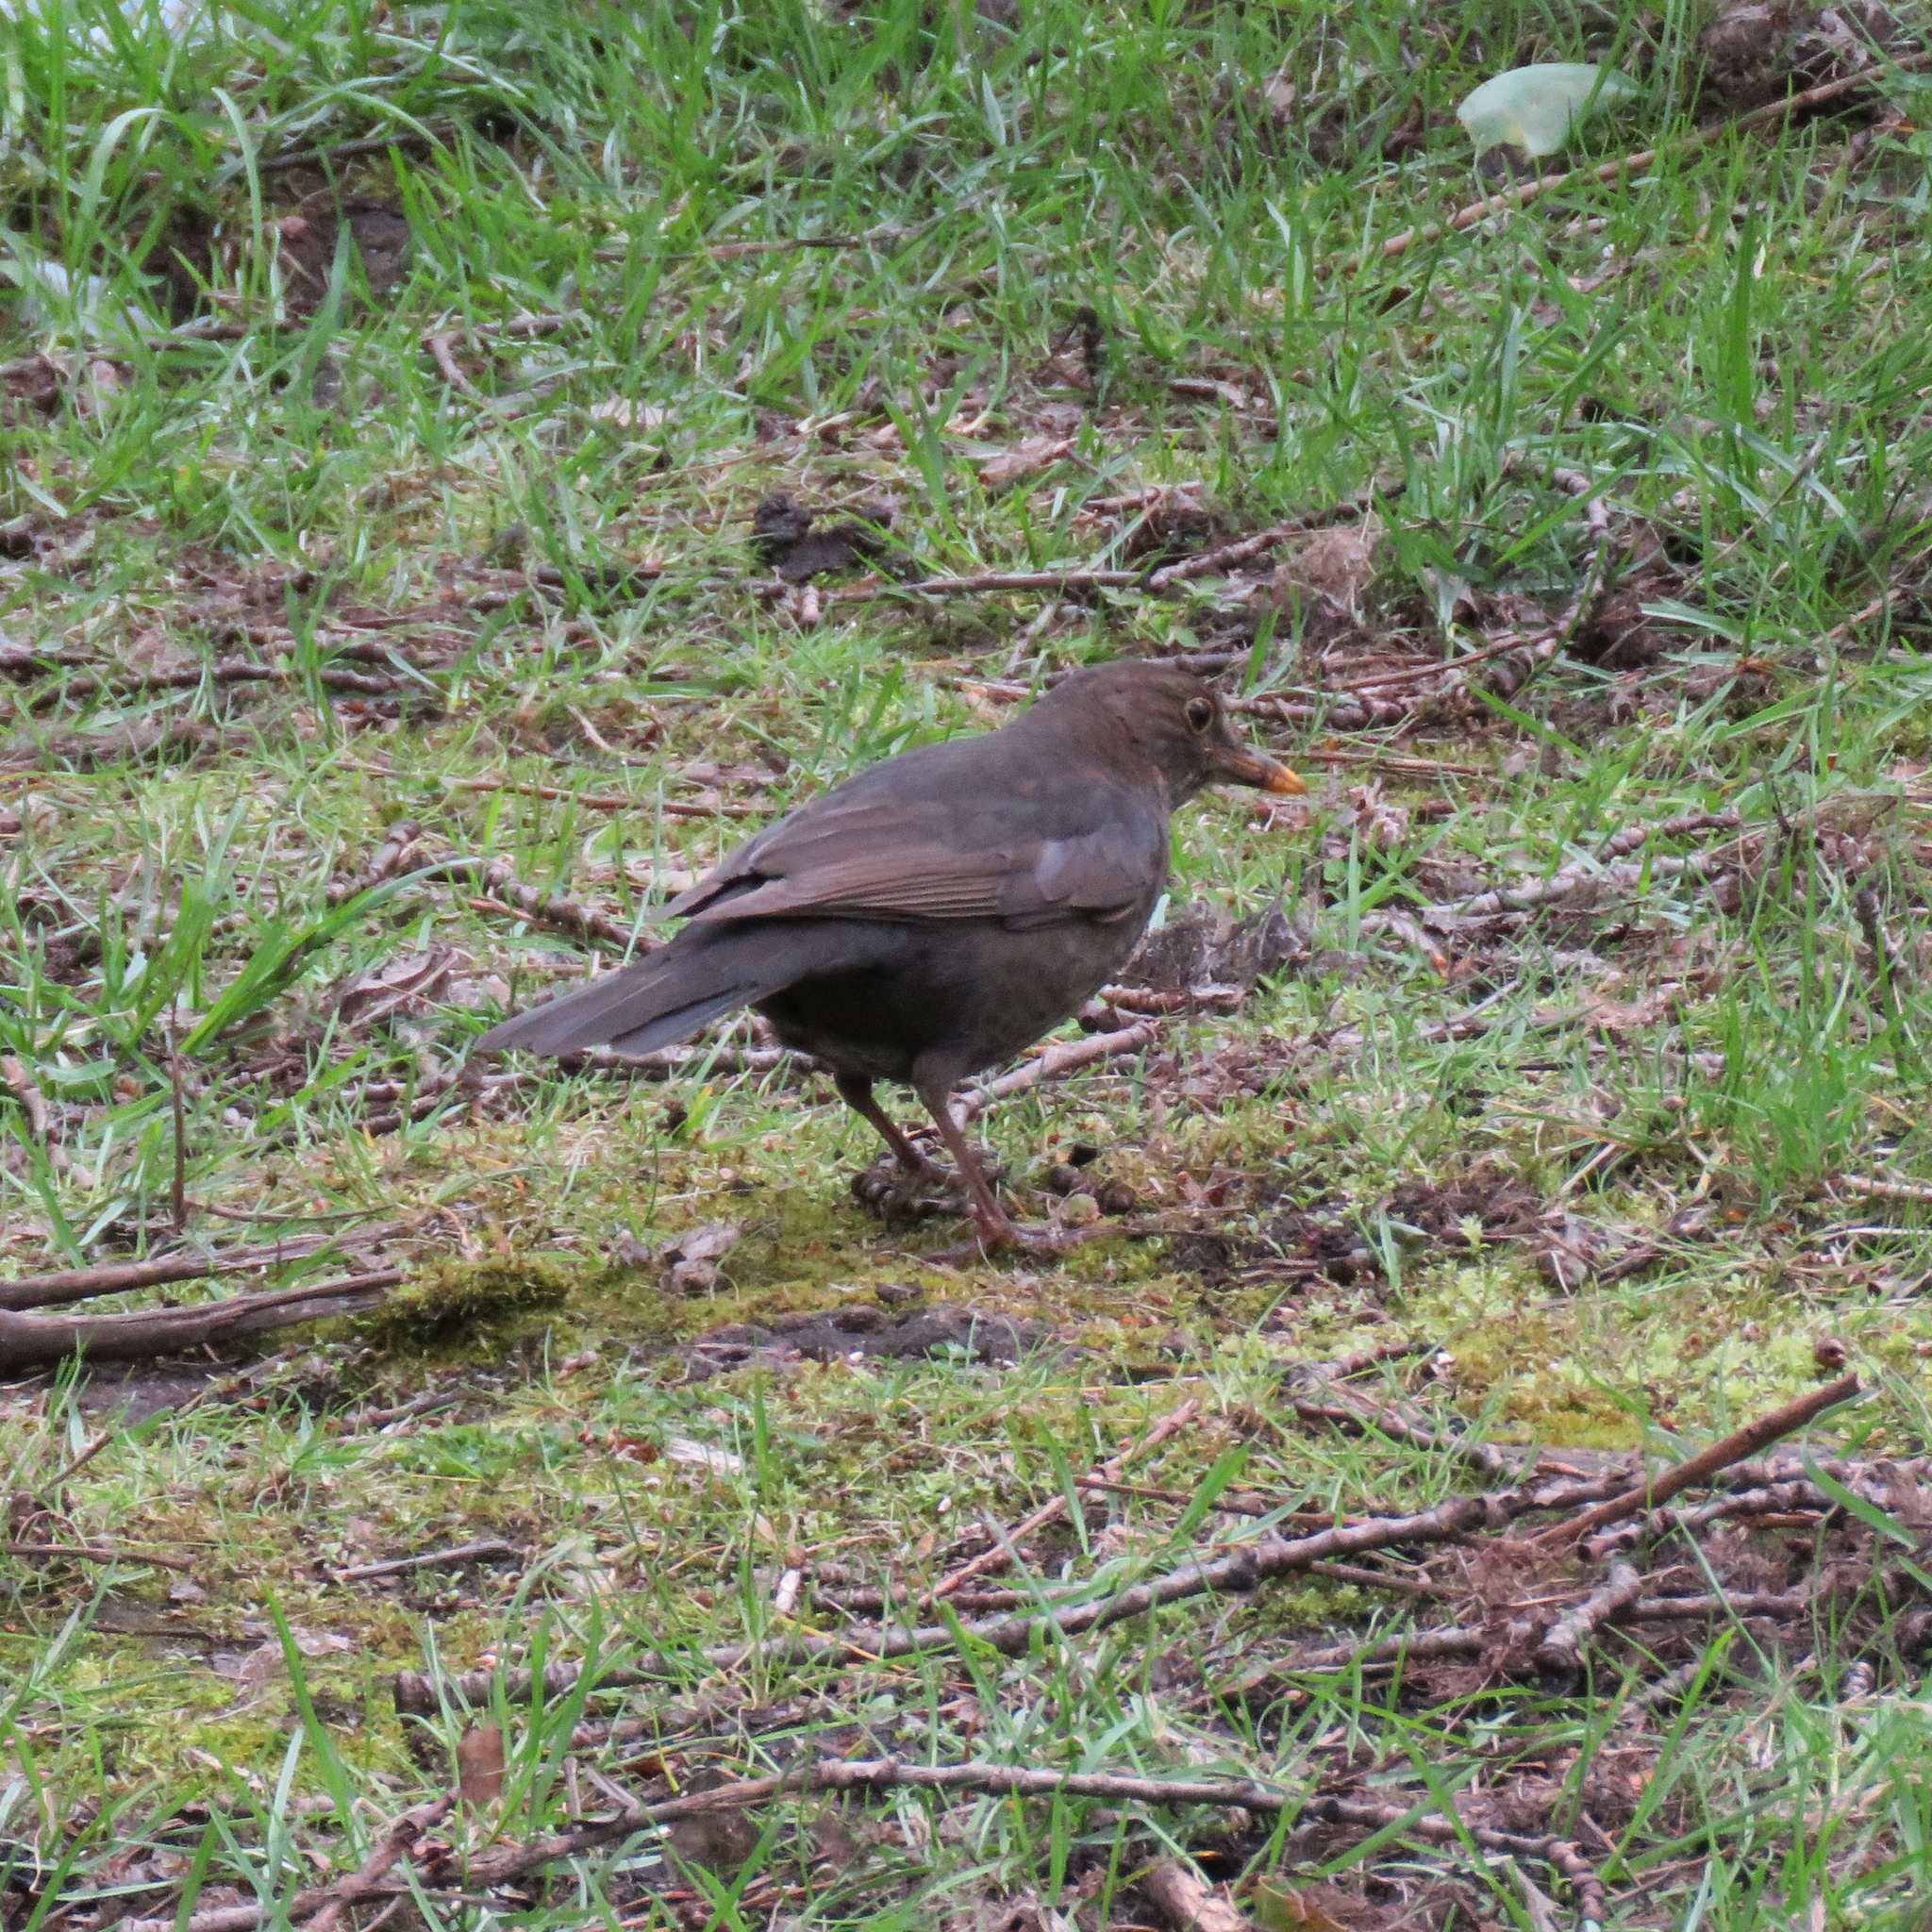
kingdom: Animalia
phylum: Chordata
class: Aves
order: Passeriformes
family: Turdidae
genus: Turdus
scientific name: Turdus merula
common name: Common blackbird
